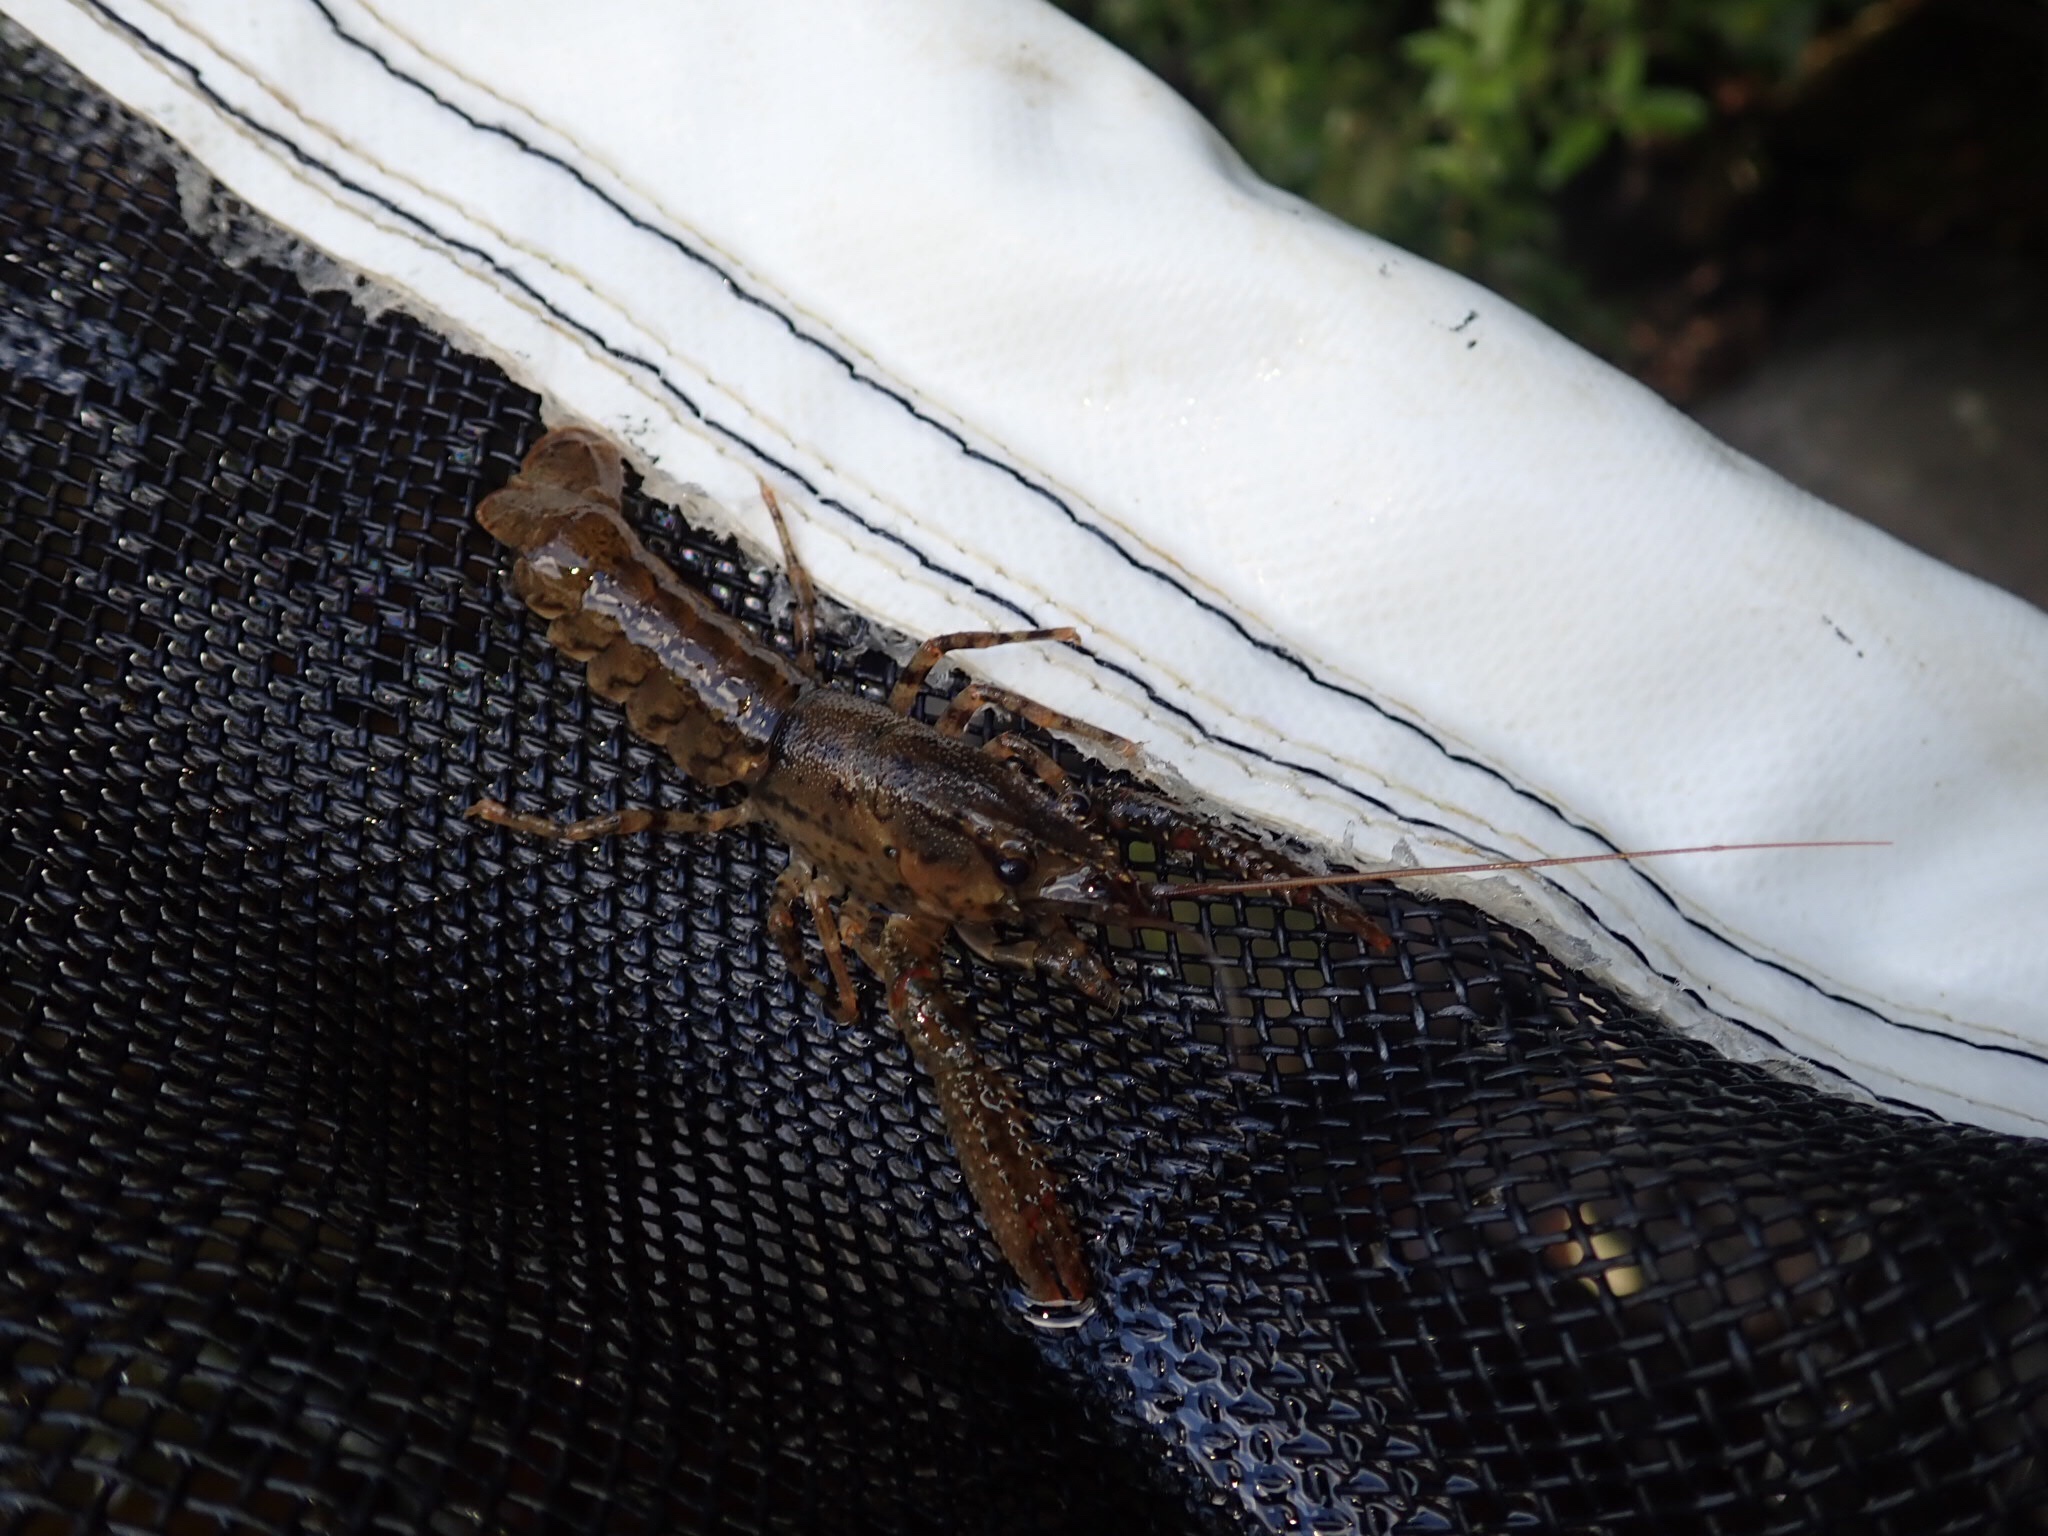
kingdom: Animalia
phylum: Arthropoda
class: Malacostraca
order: Decapoda
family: Parastacidae
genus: Paranephrops
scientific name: Paranephrops planifrons
